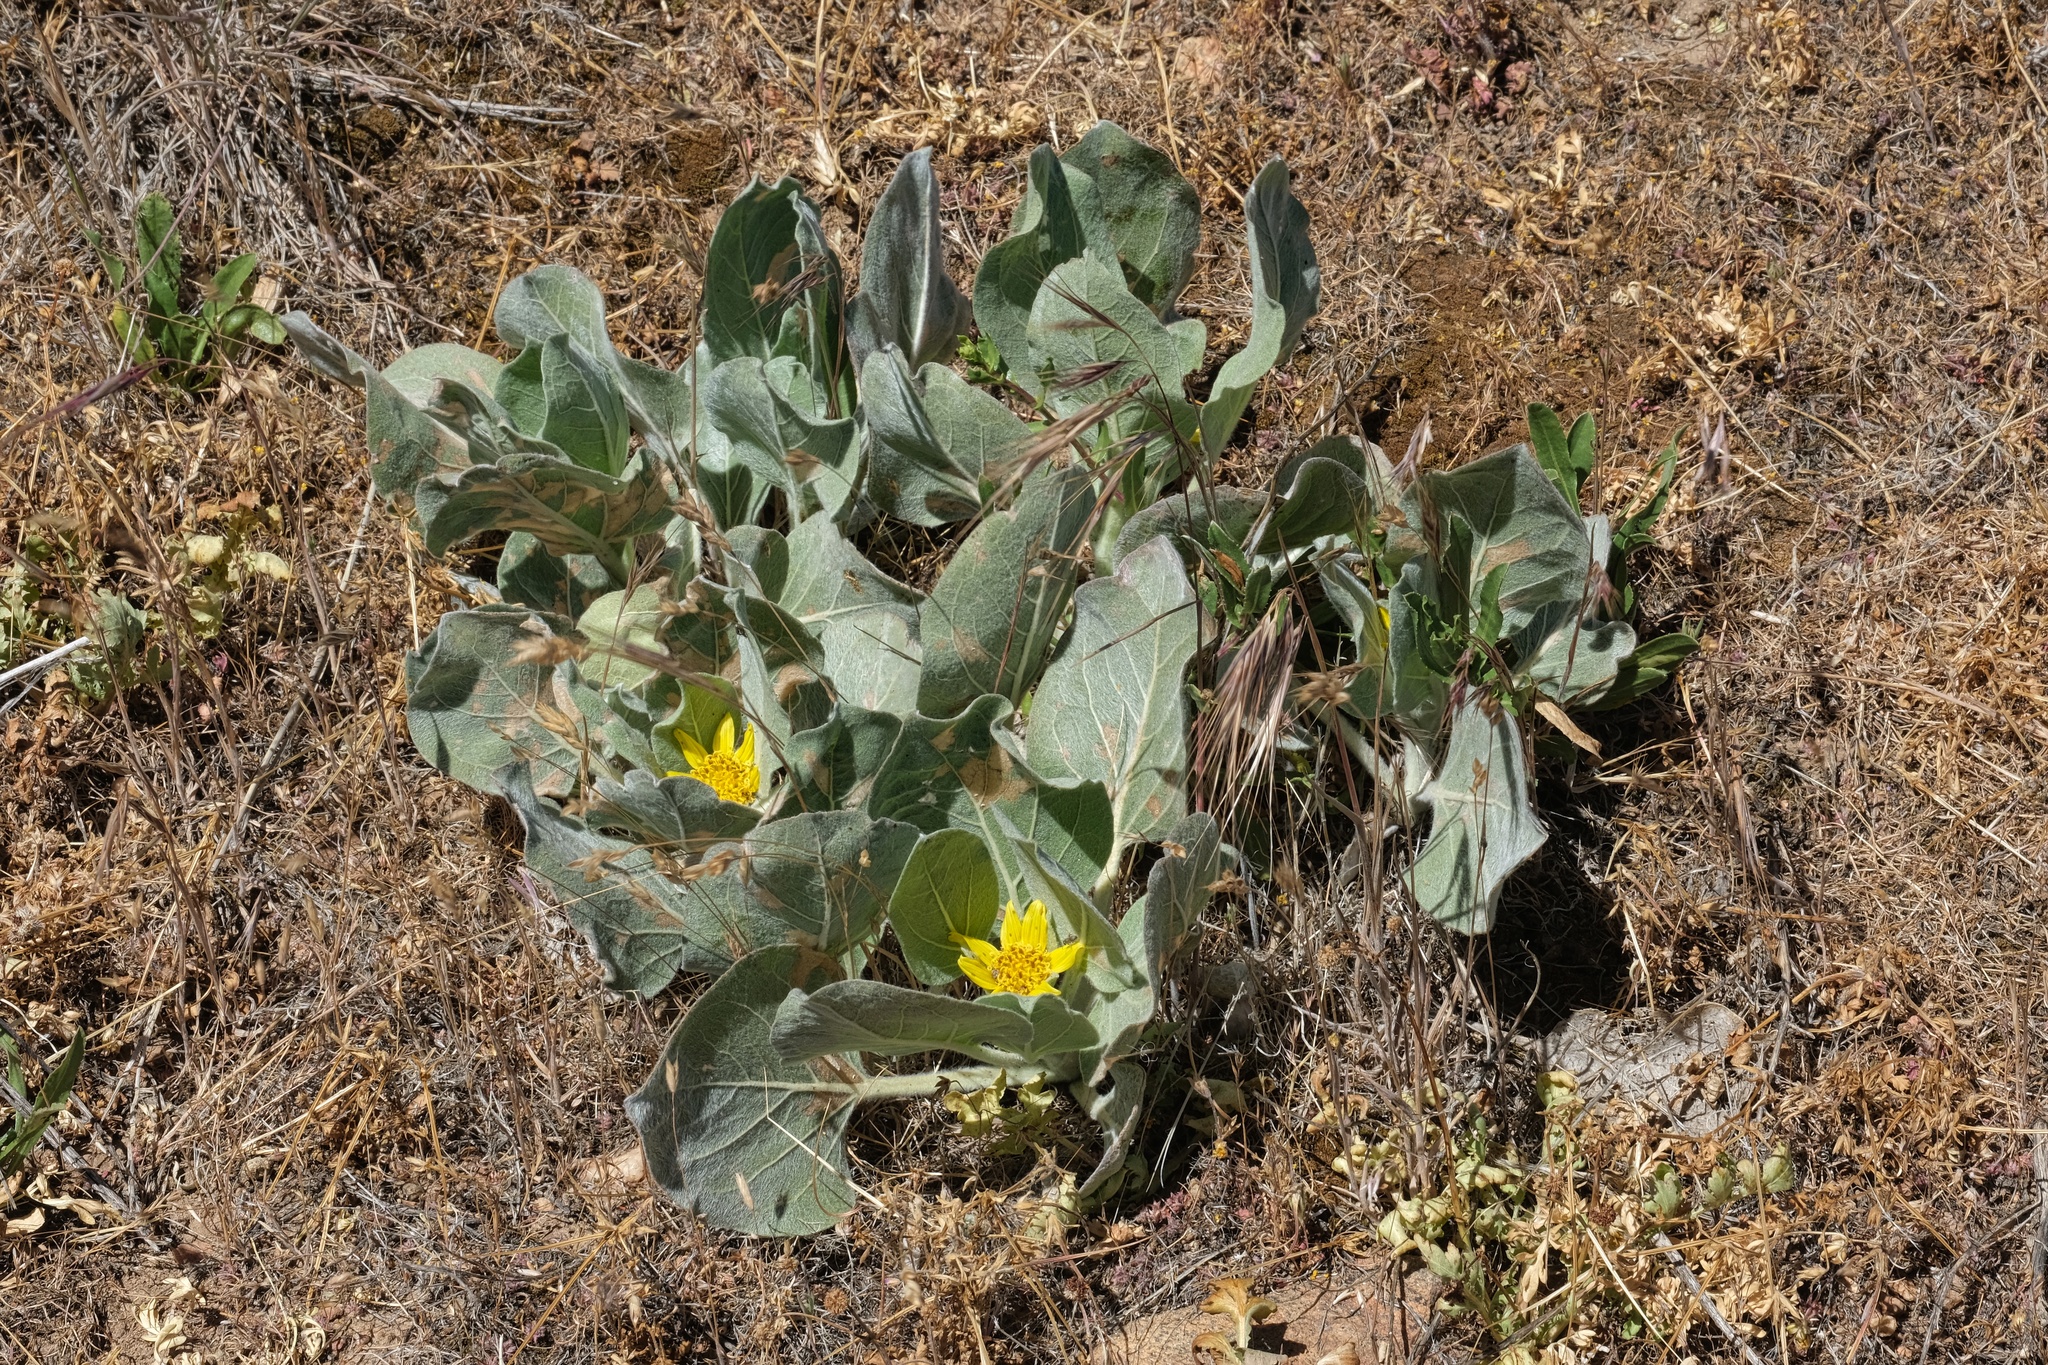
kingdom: Plantae
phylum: Tracheophyta
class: Magnoliopsida
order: Asterales
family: Asteraceae
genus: Agnorhiza
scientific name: Agnorhiza ovata
